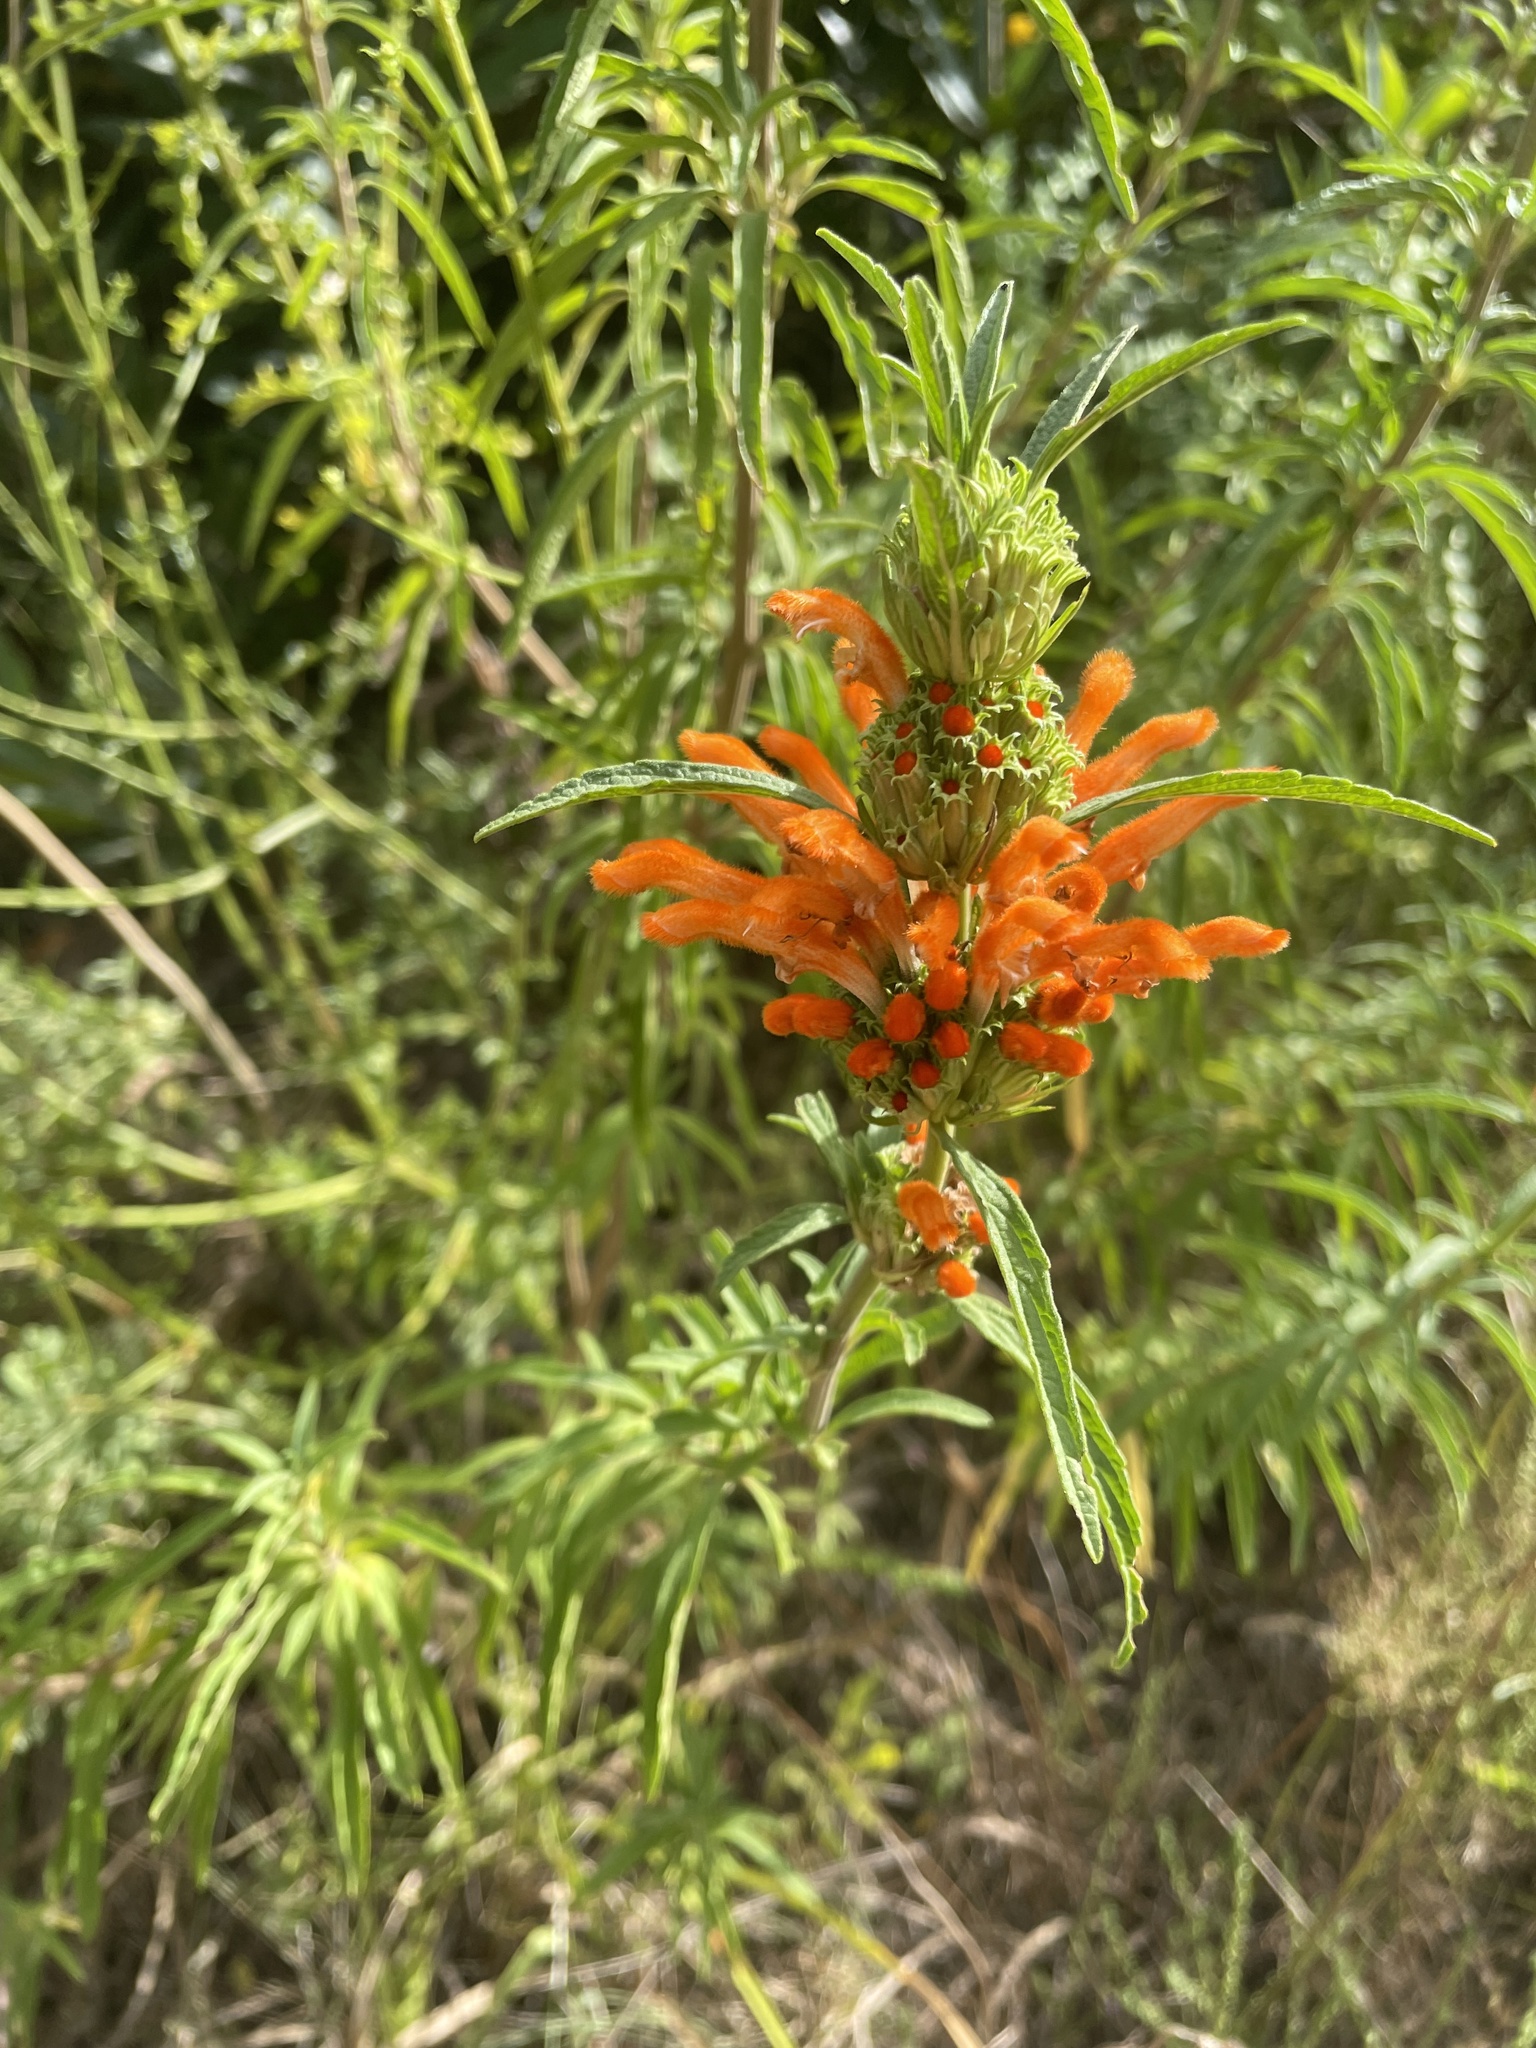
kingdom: Plantae
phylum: Tracheophyta
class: Magnoliopsida
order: Lamiales
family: Lamiaceae
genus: Leonotis
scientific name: Leonotis leonurus
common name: Lion's ear
